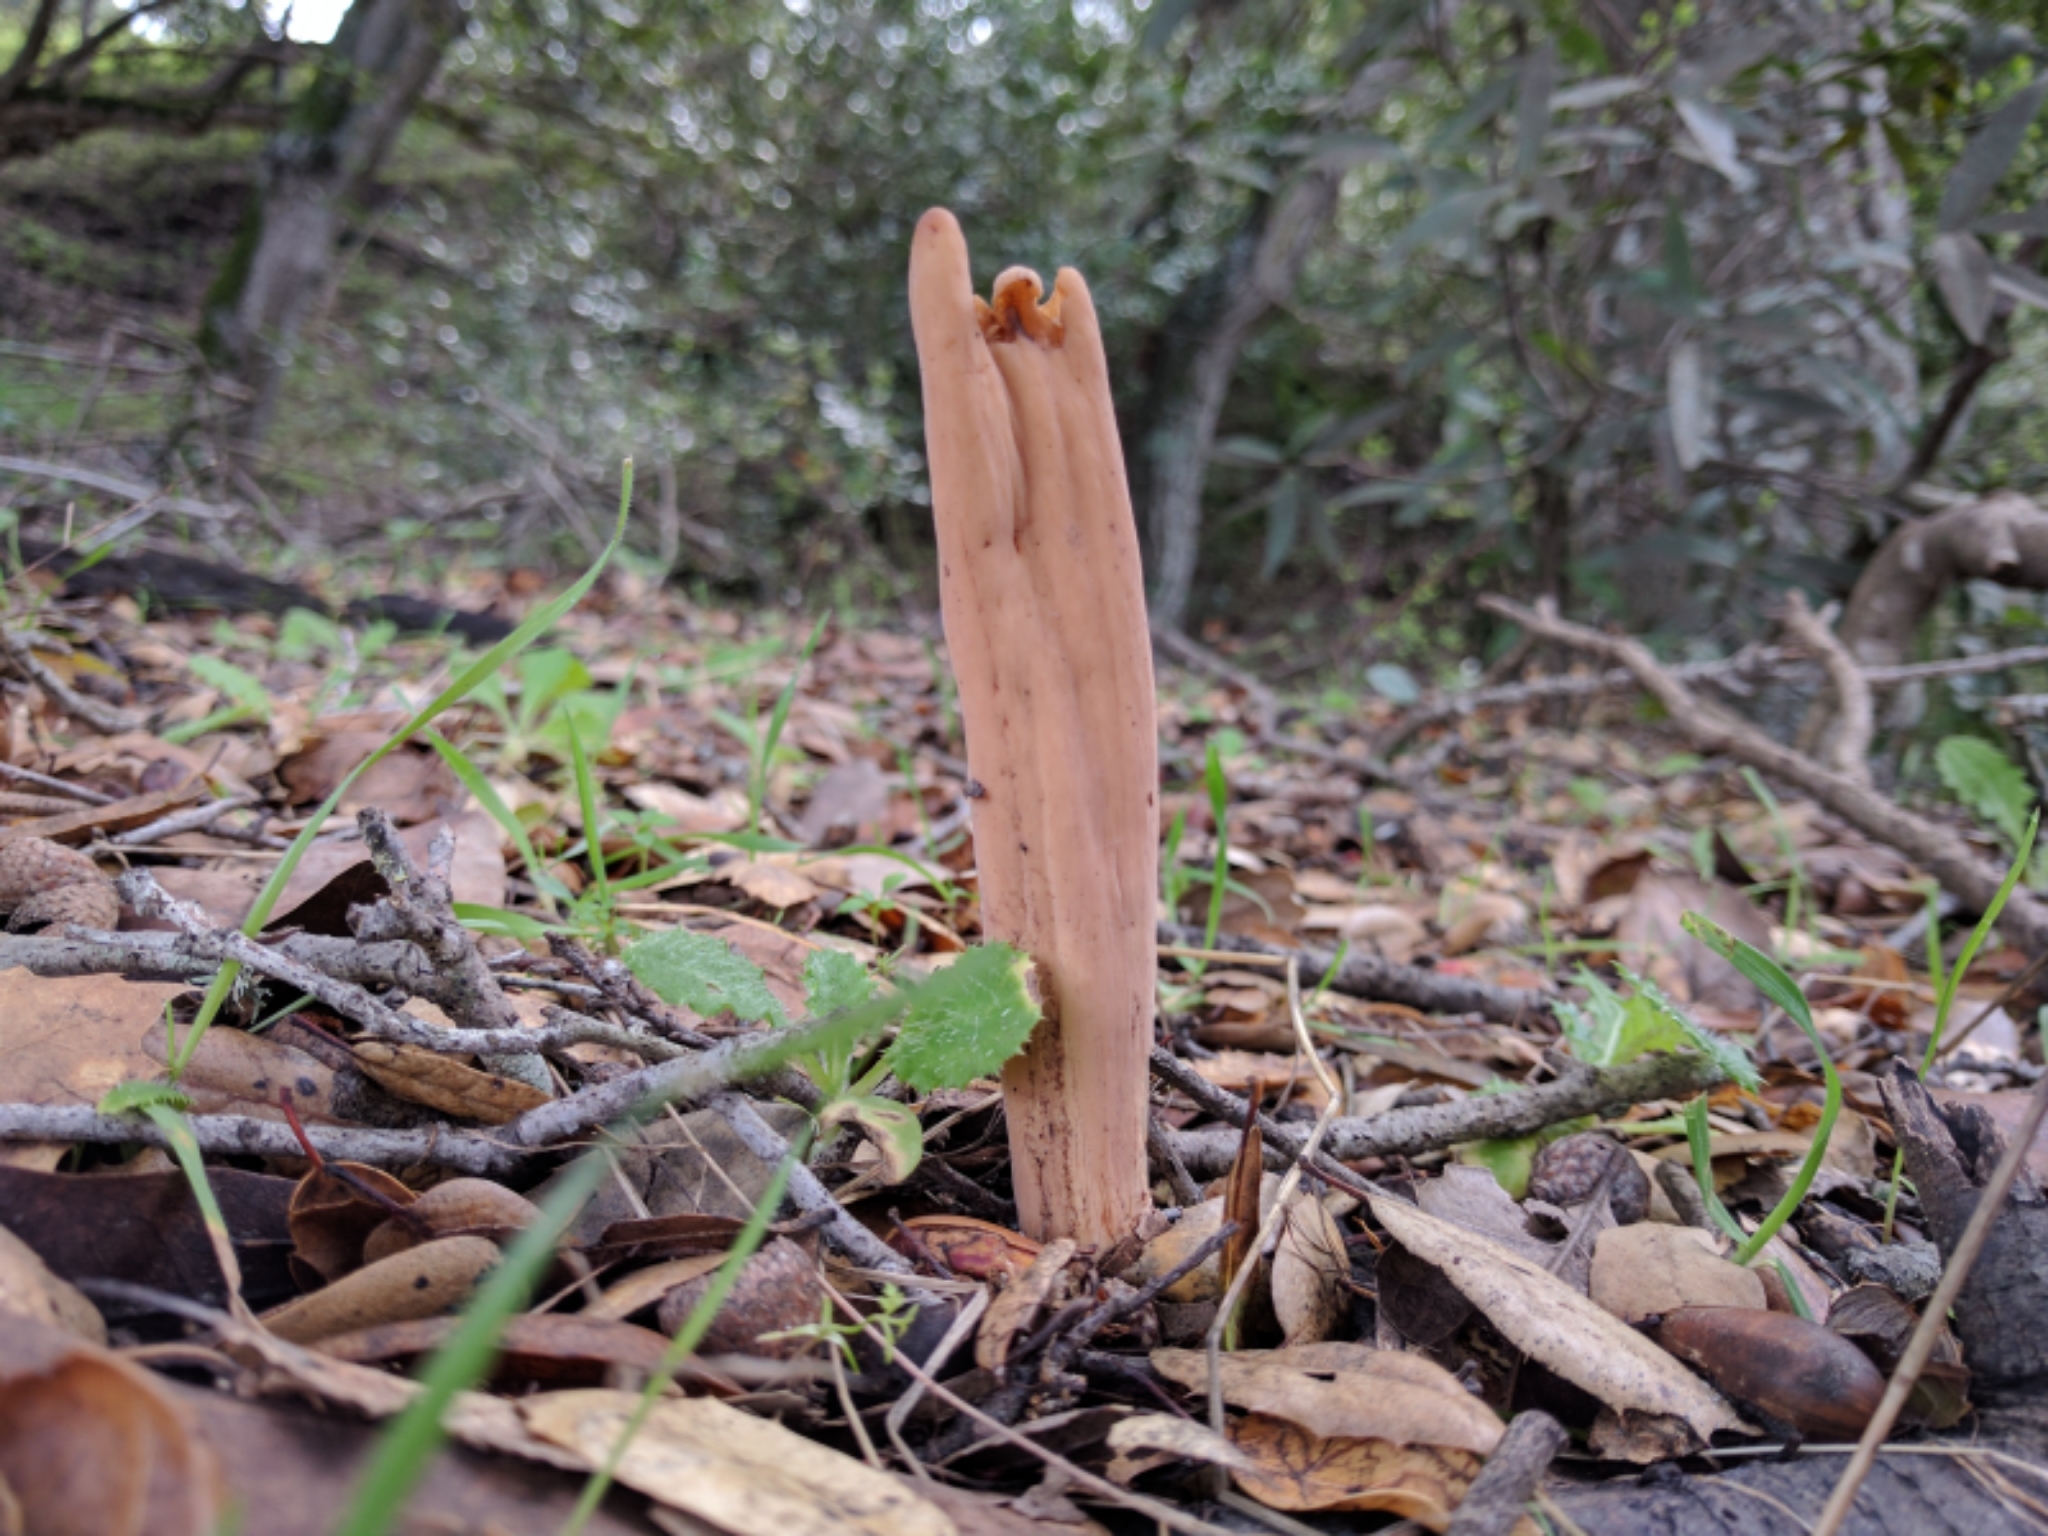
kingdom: Fungi
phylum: Basidiomycota
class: Agaricomycetes
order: Gomphales
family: Clavariadelphaceae
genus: Clavariadelphus
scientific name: Clavariadelphus occidentalis
